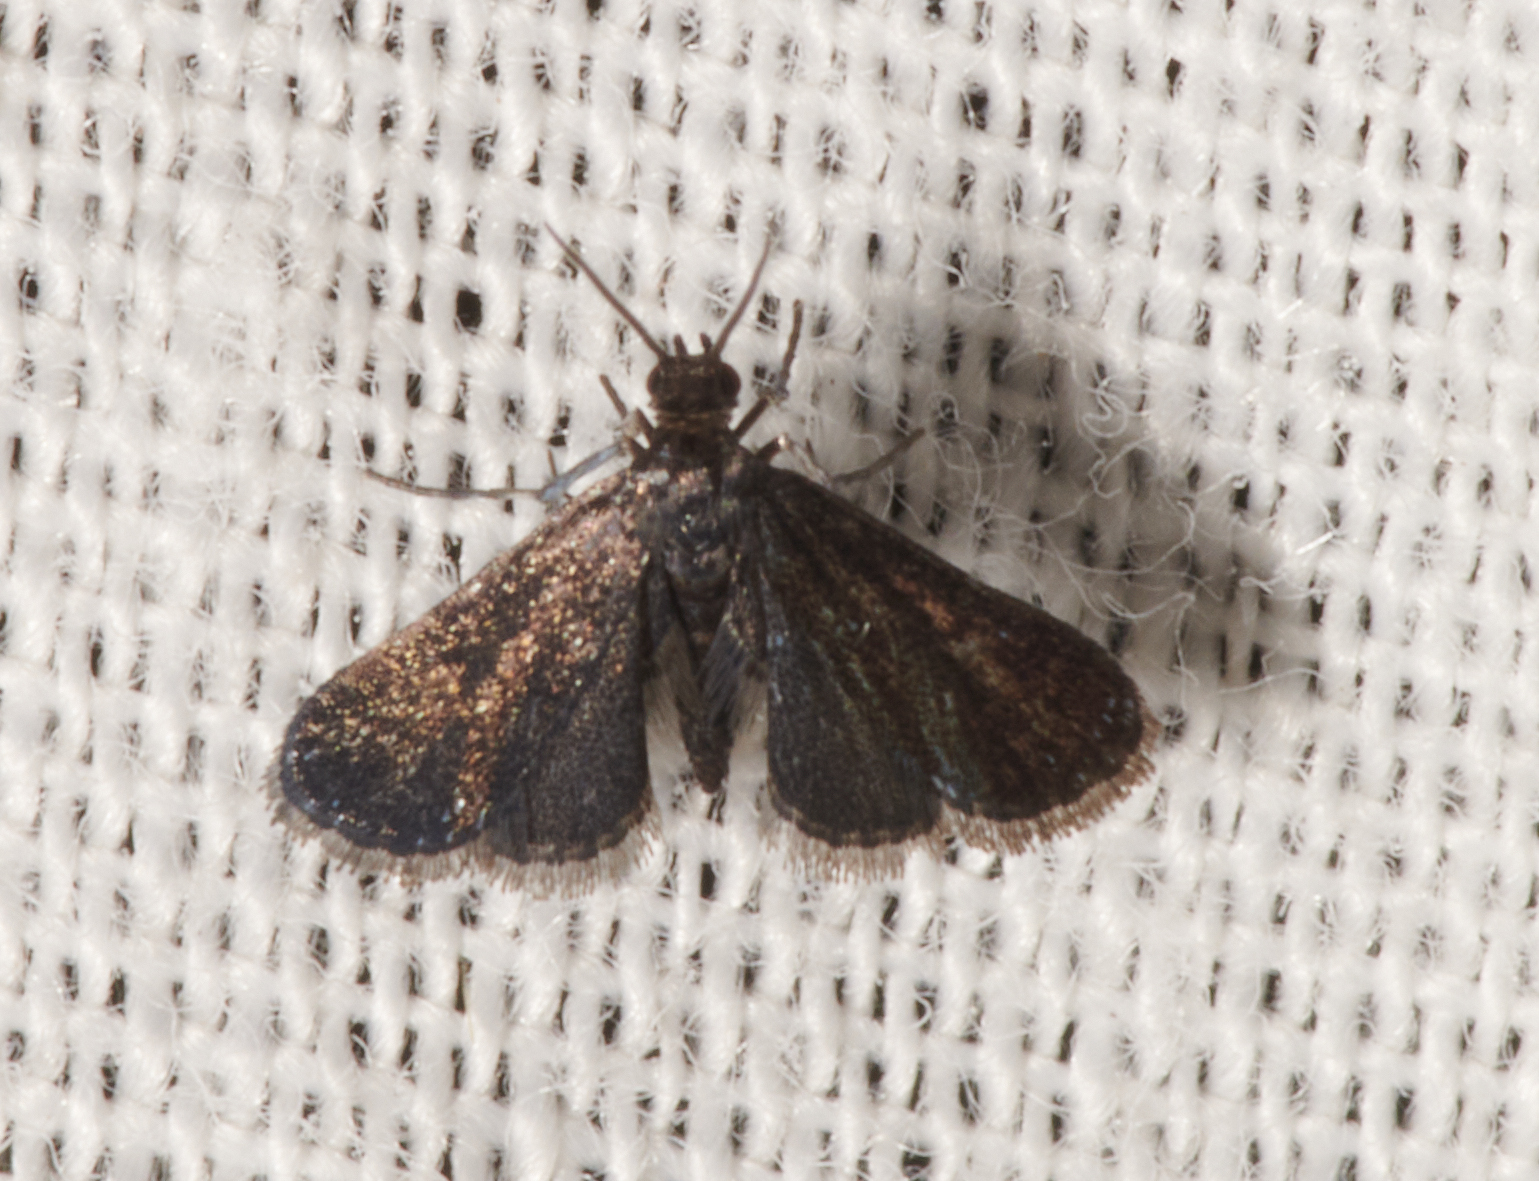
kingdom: Animalia
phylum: Arthropoda
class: Insecta
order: Lepidoptera
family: Crambidae
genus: Elophila
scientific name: Elophila tinealis
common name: Black duckweed moth
